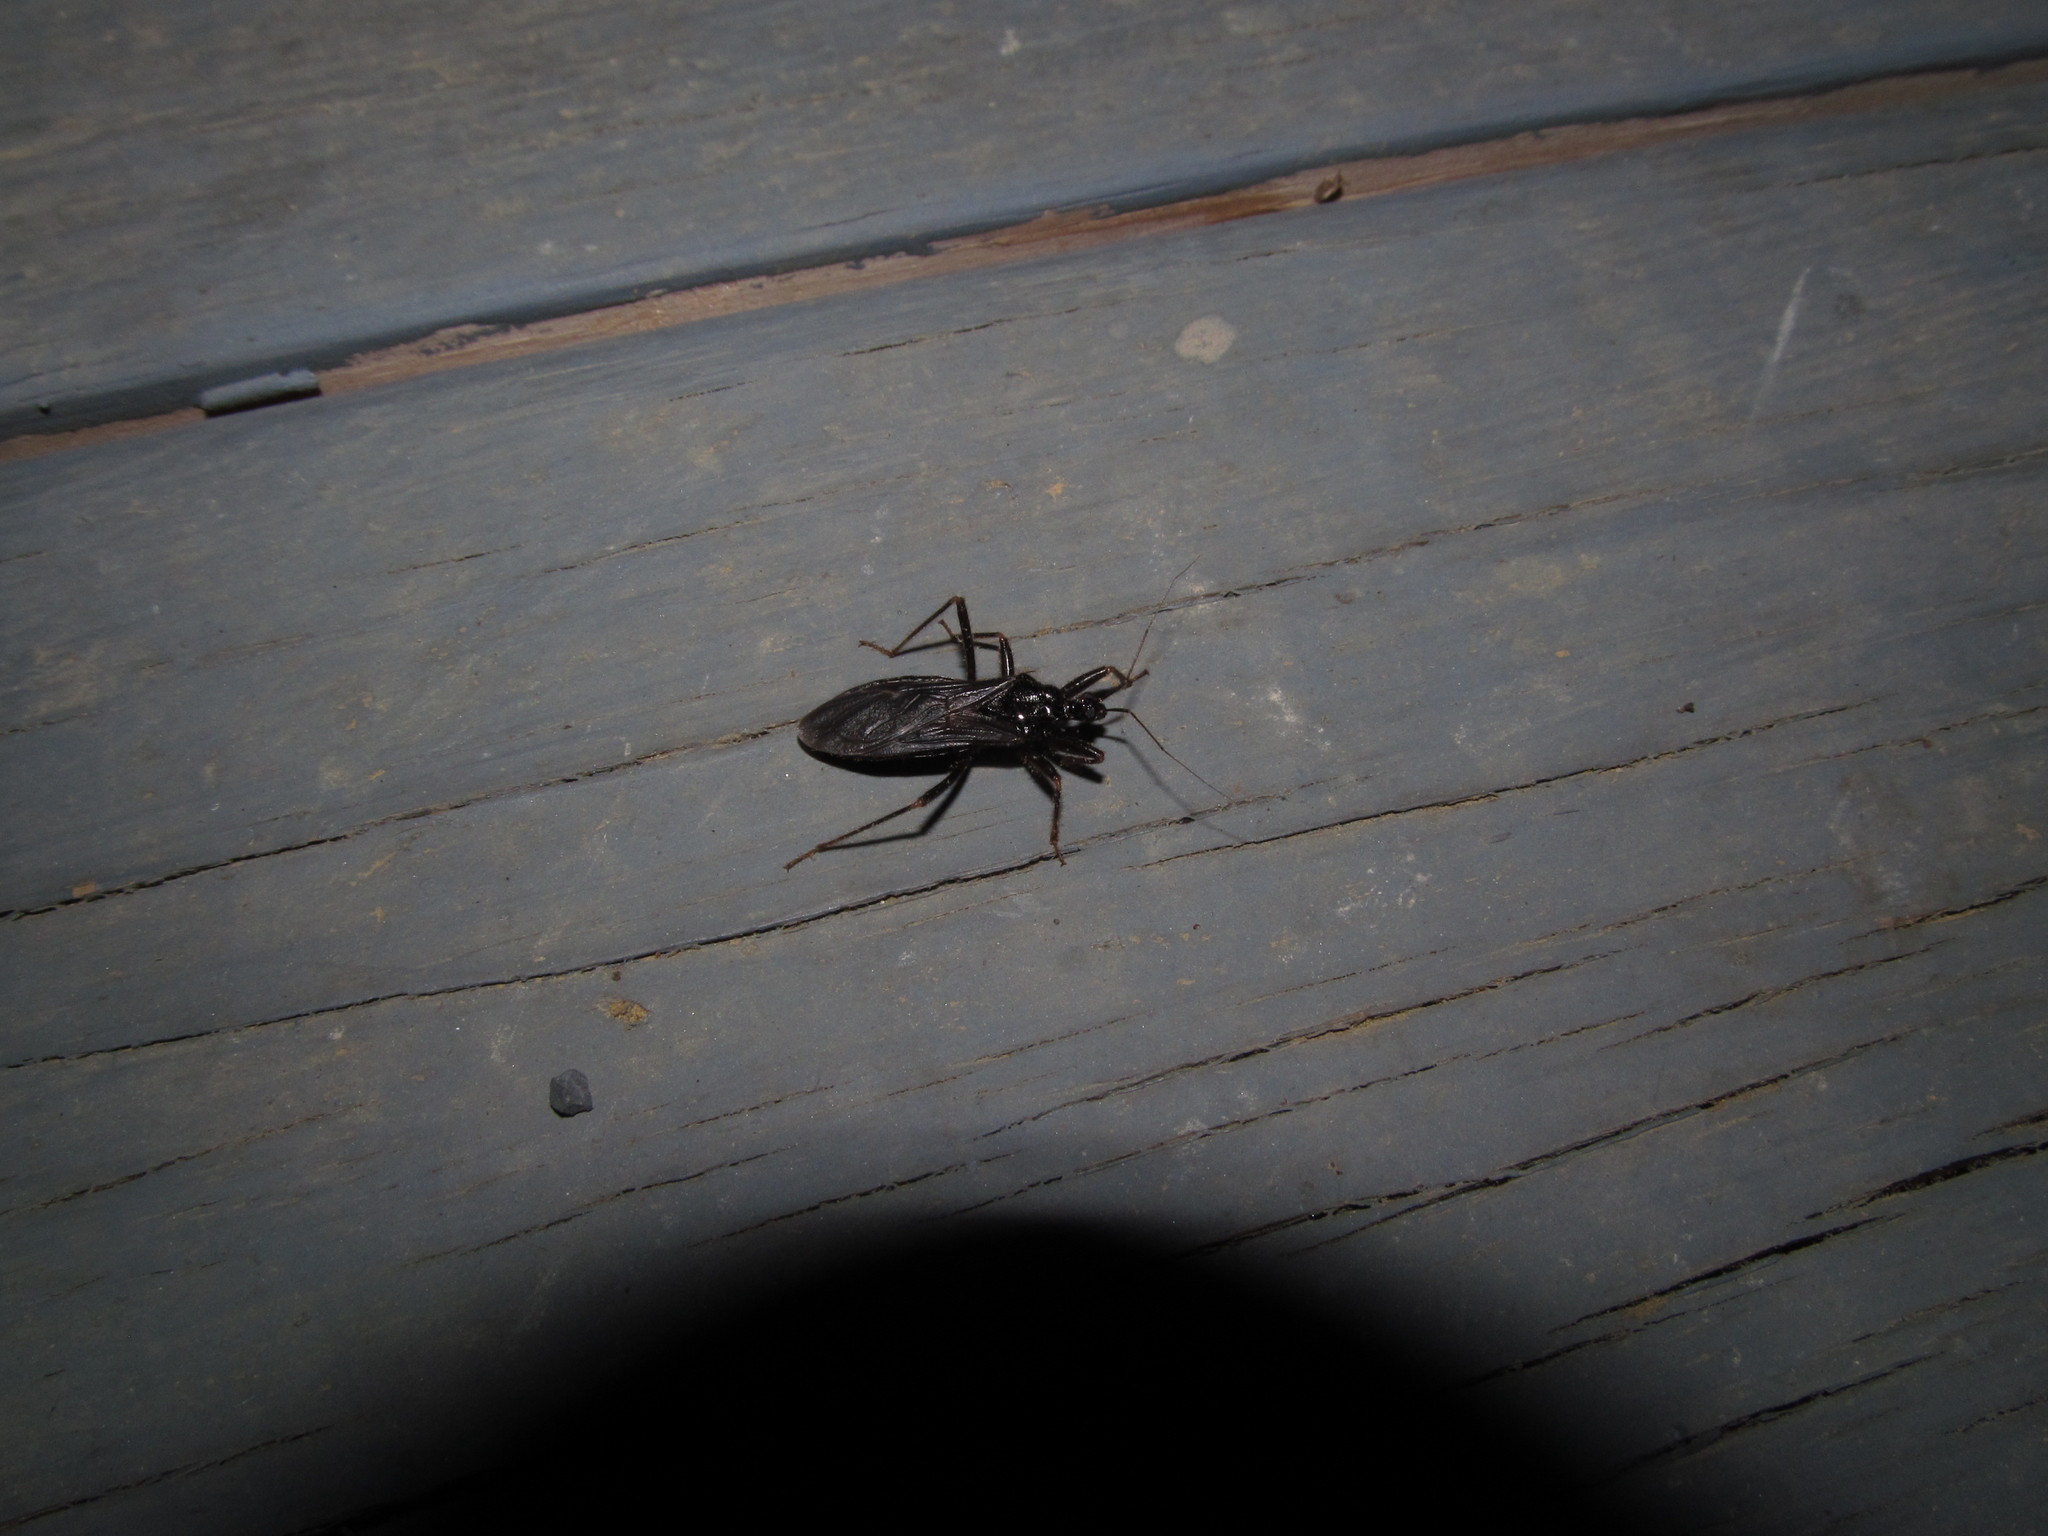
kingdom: Animalia
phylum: Arthropoda
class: Insecta
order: Hemiptera
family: Reduviidae
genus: Melanolestes
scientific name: Melanolestes picipes
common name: Assassin bug
